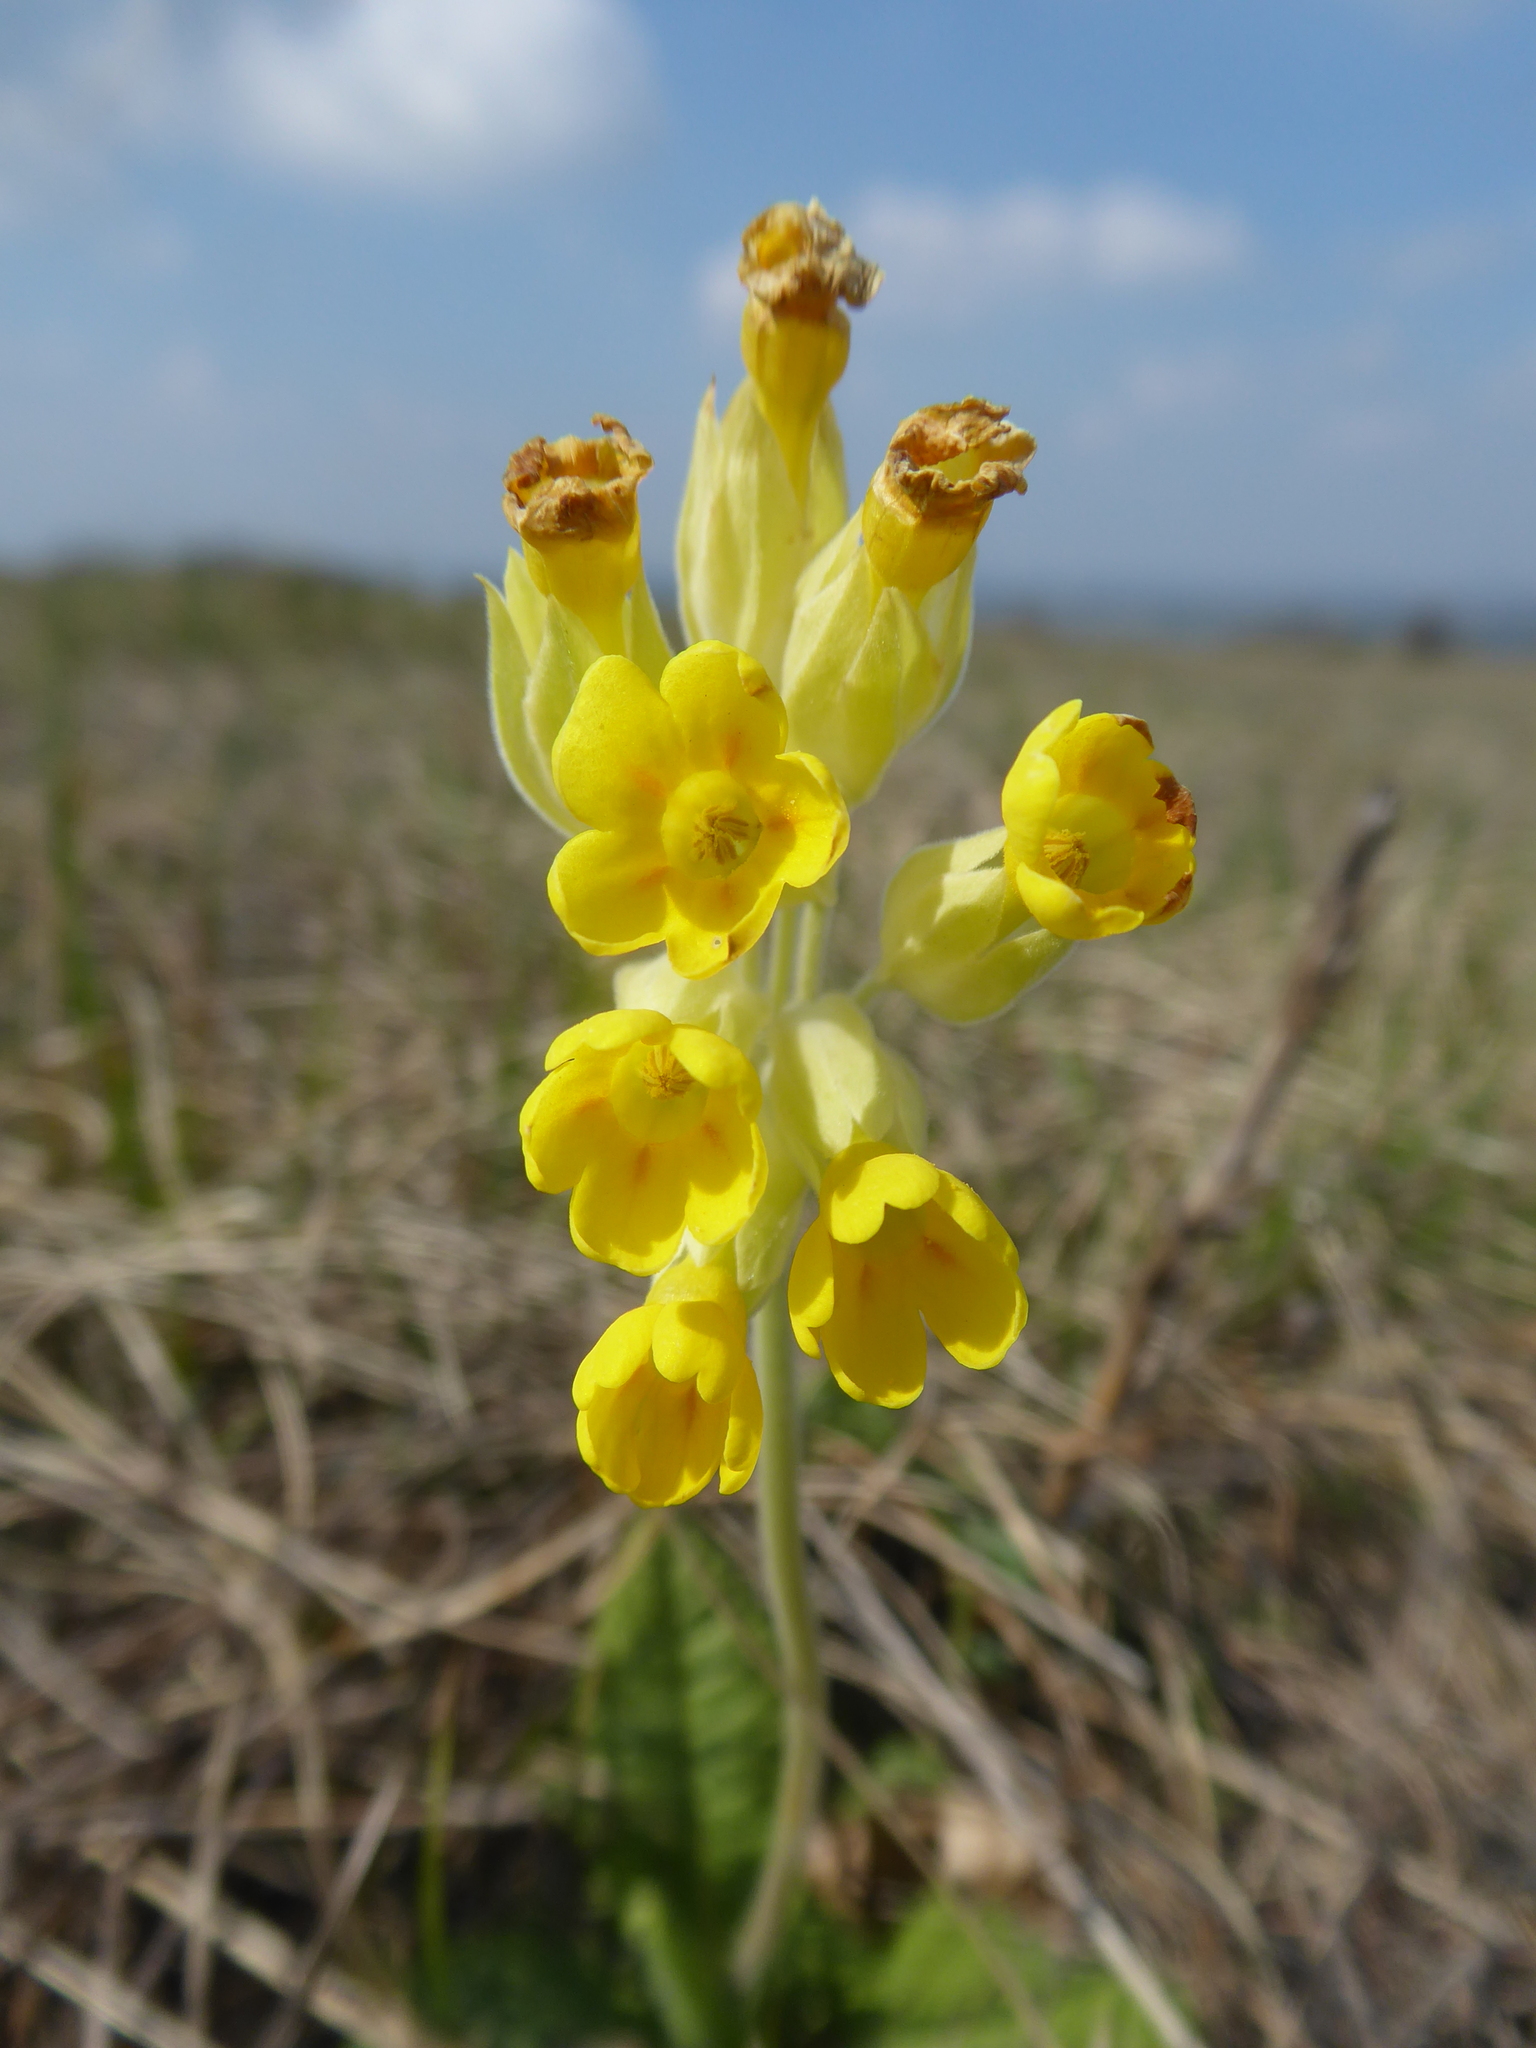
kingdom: Plantae
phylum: Tracheophyta
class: Magnoliopsida
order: Ericales
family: Primulaceae
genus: Primula
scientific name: Primula veris
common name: Cowslip
